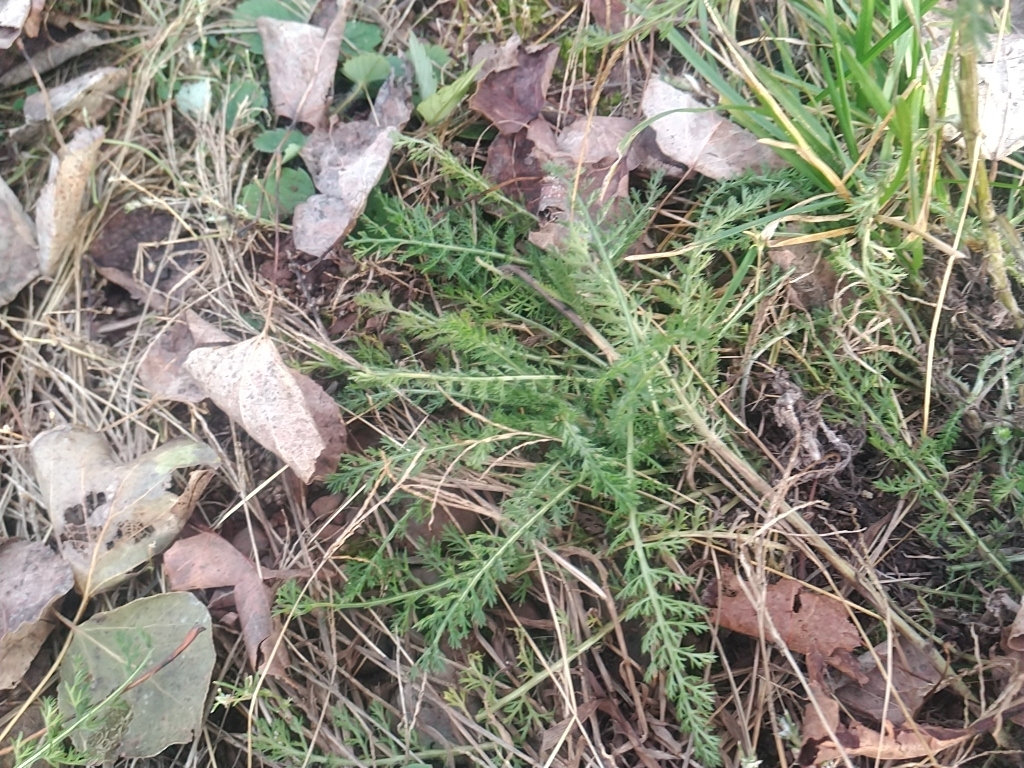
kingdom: Plantae
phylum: Tracheophyta
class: Magnoliopsida
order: Asterales
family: Asteraceae
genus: Achillea
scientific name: Achillea millefolium
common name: Yarrow
